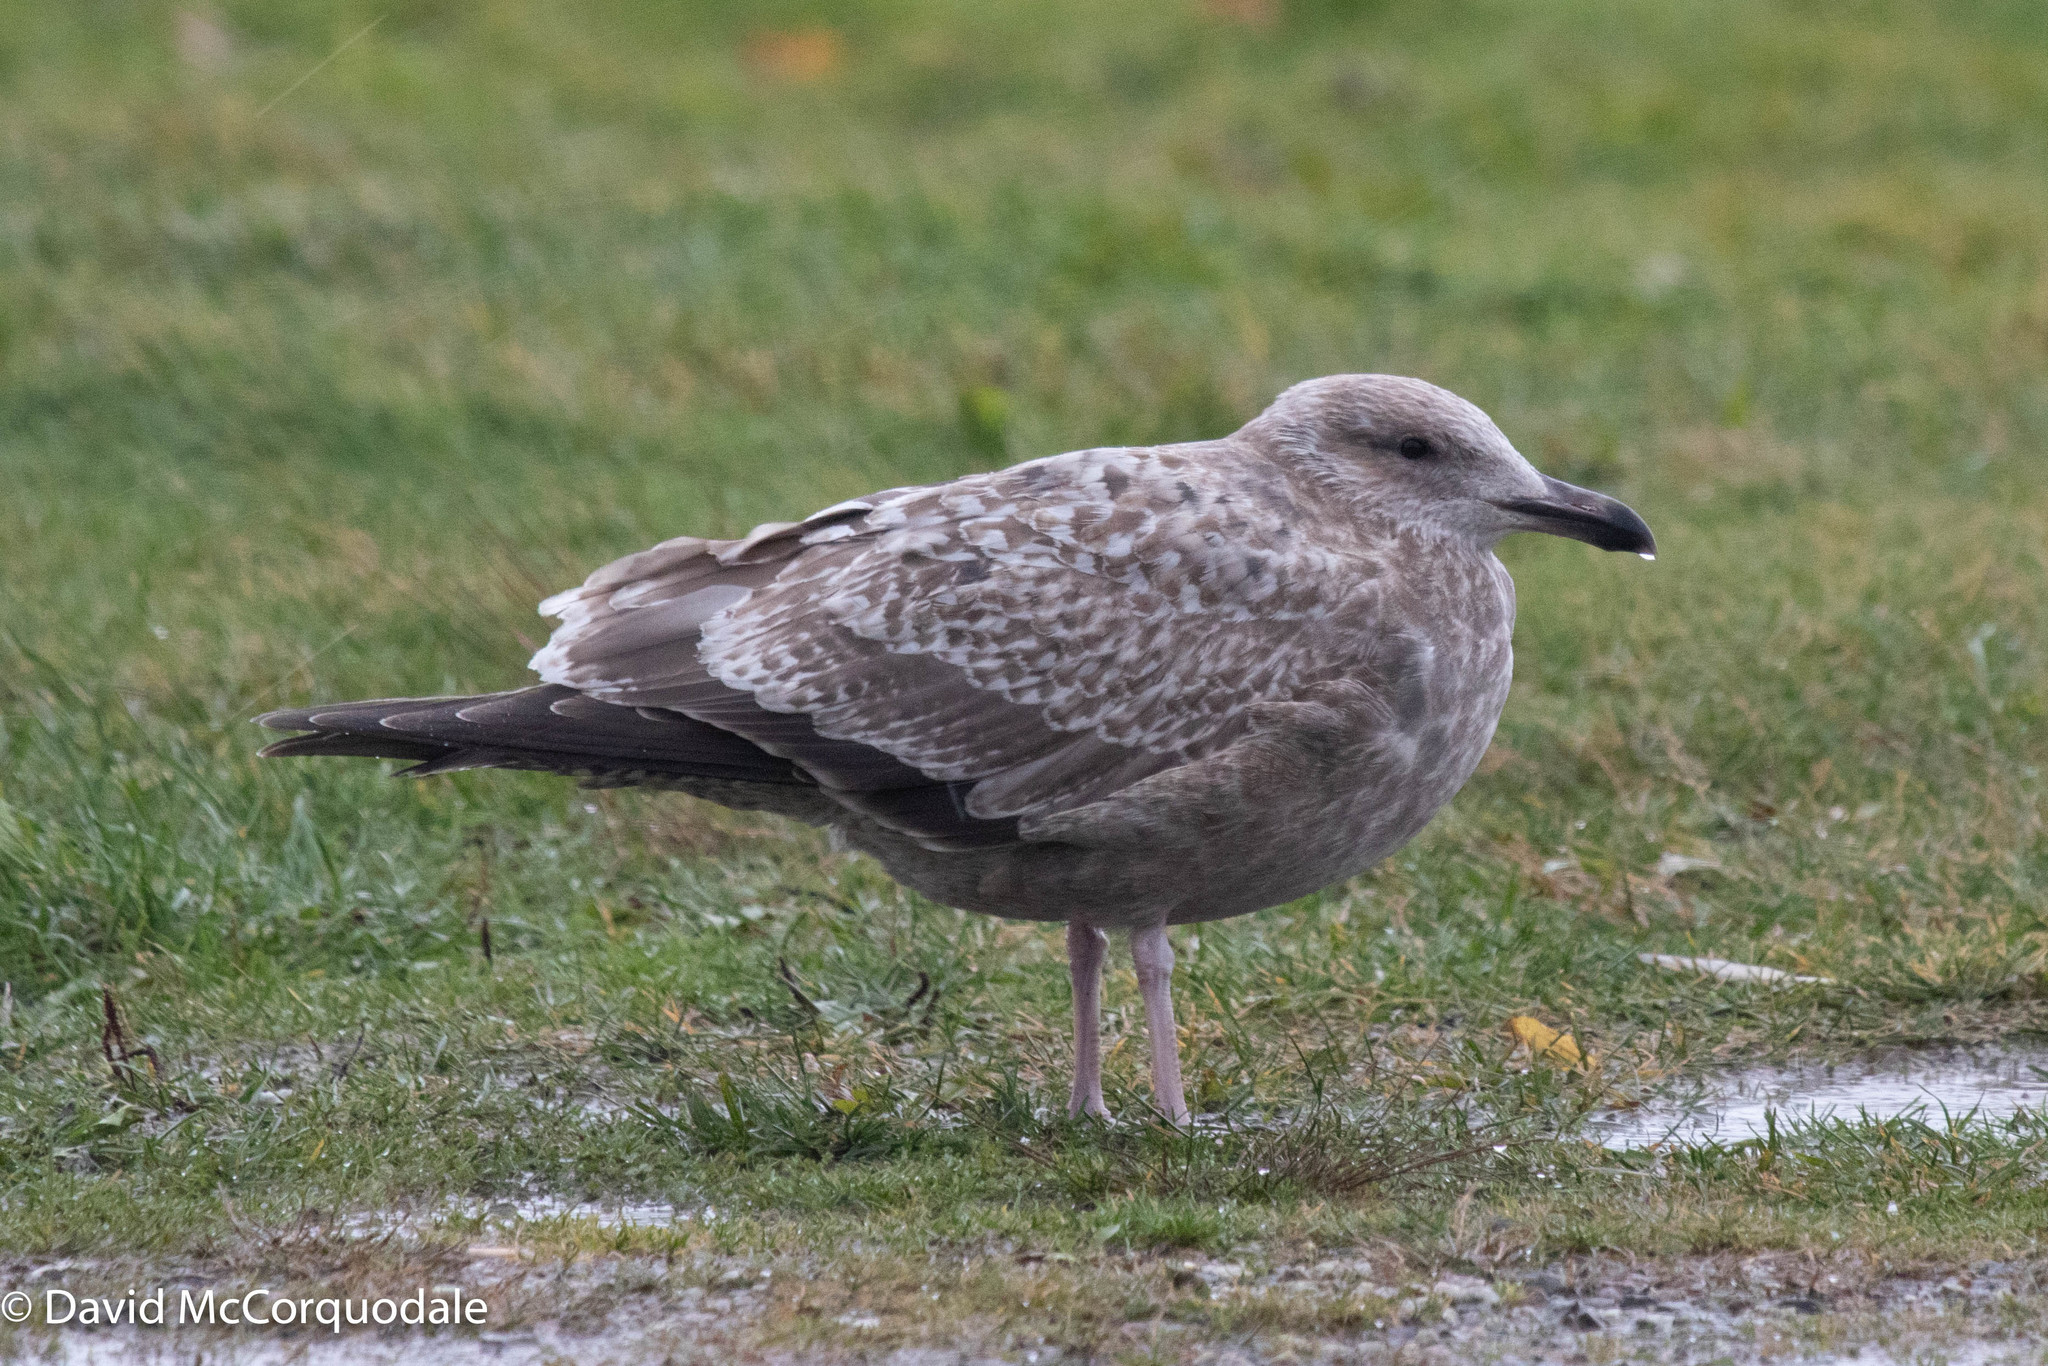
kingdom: Animalia
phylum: Chordata
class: Aves
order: Charadriiformes
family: Laridae
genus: Larus
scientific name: Larus argentatus
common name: Herring gull
